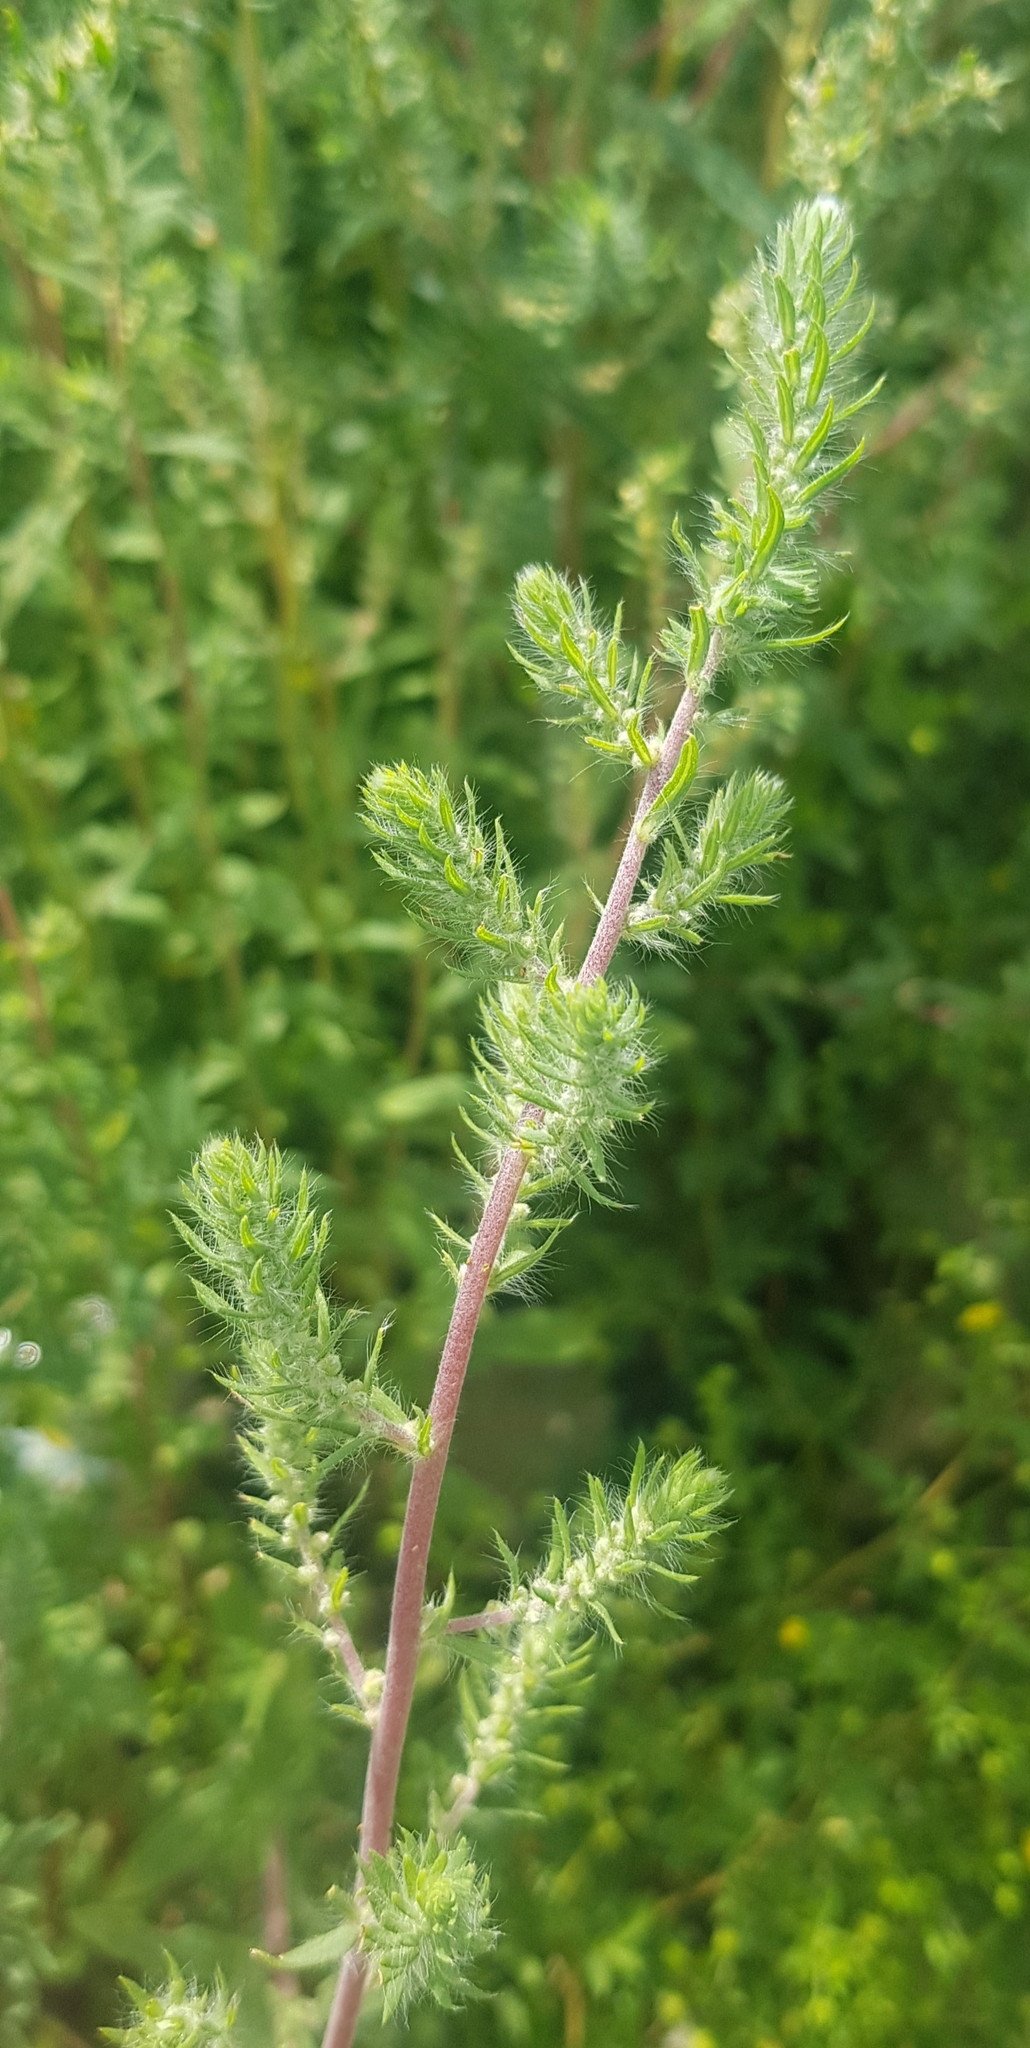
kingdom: Plantae
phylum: Tracheophyta
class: Magnoliopsida
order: Caryophyllales
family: Amaranthaceae
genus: Bassia
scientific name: Bassia scoparia
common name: Belvedere
